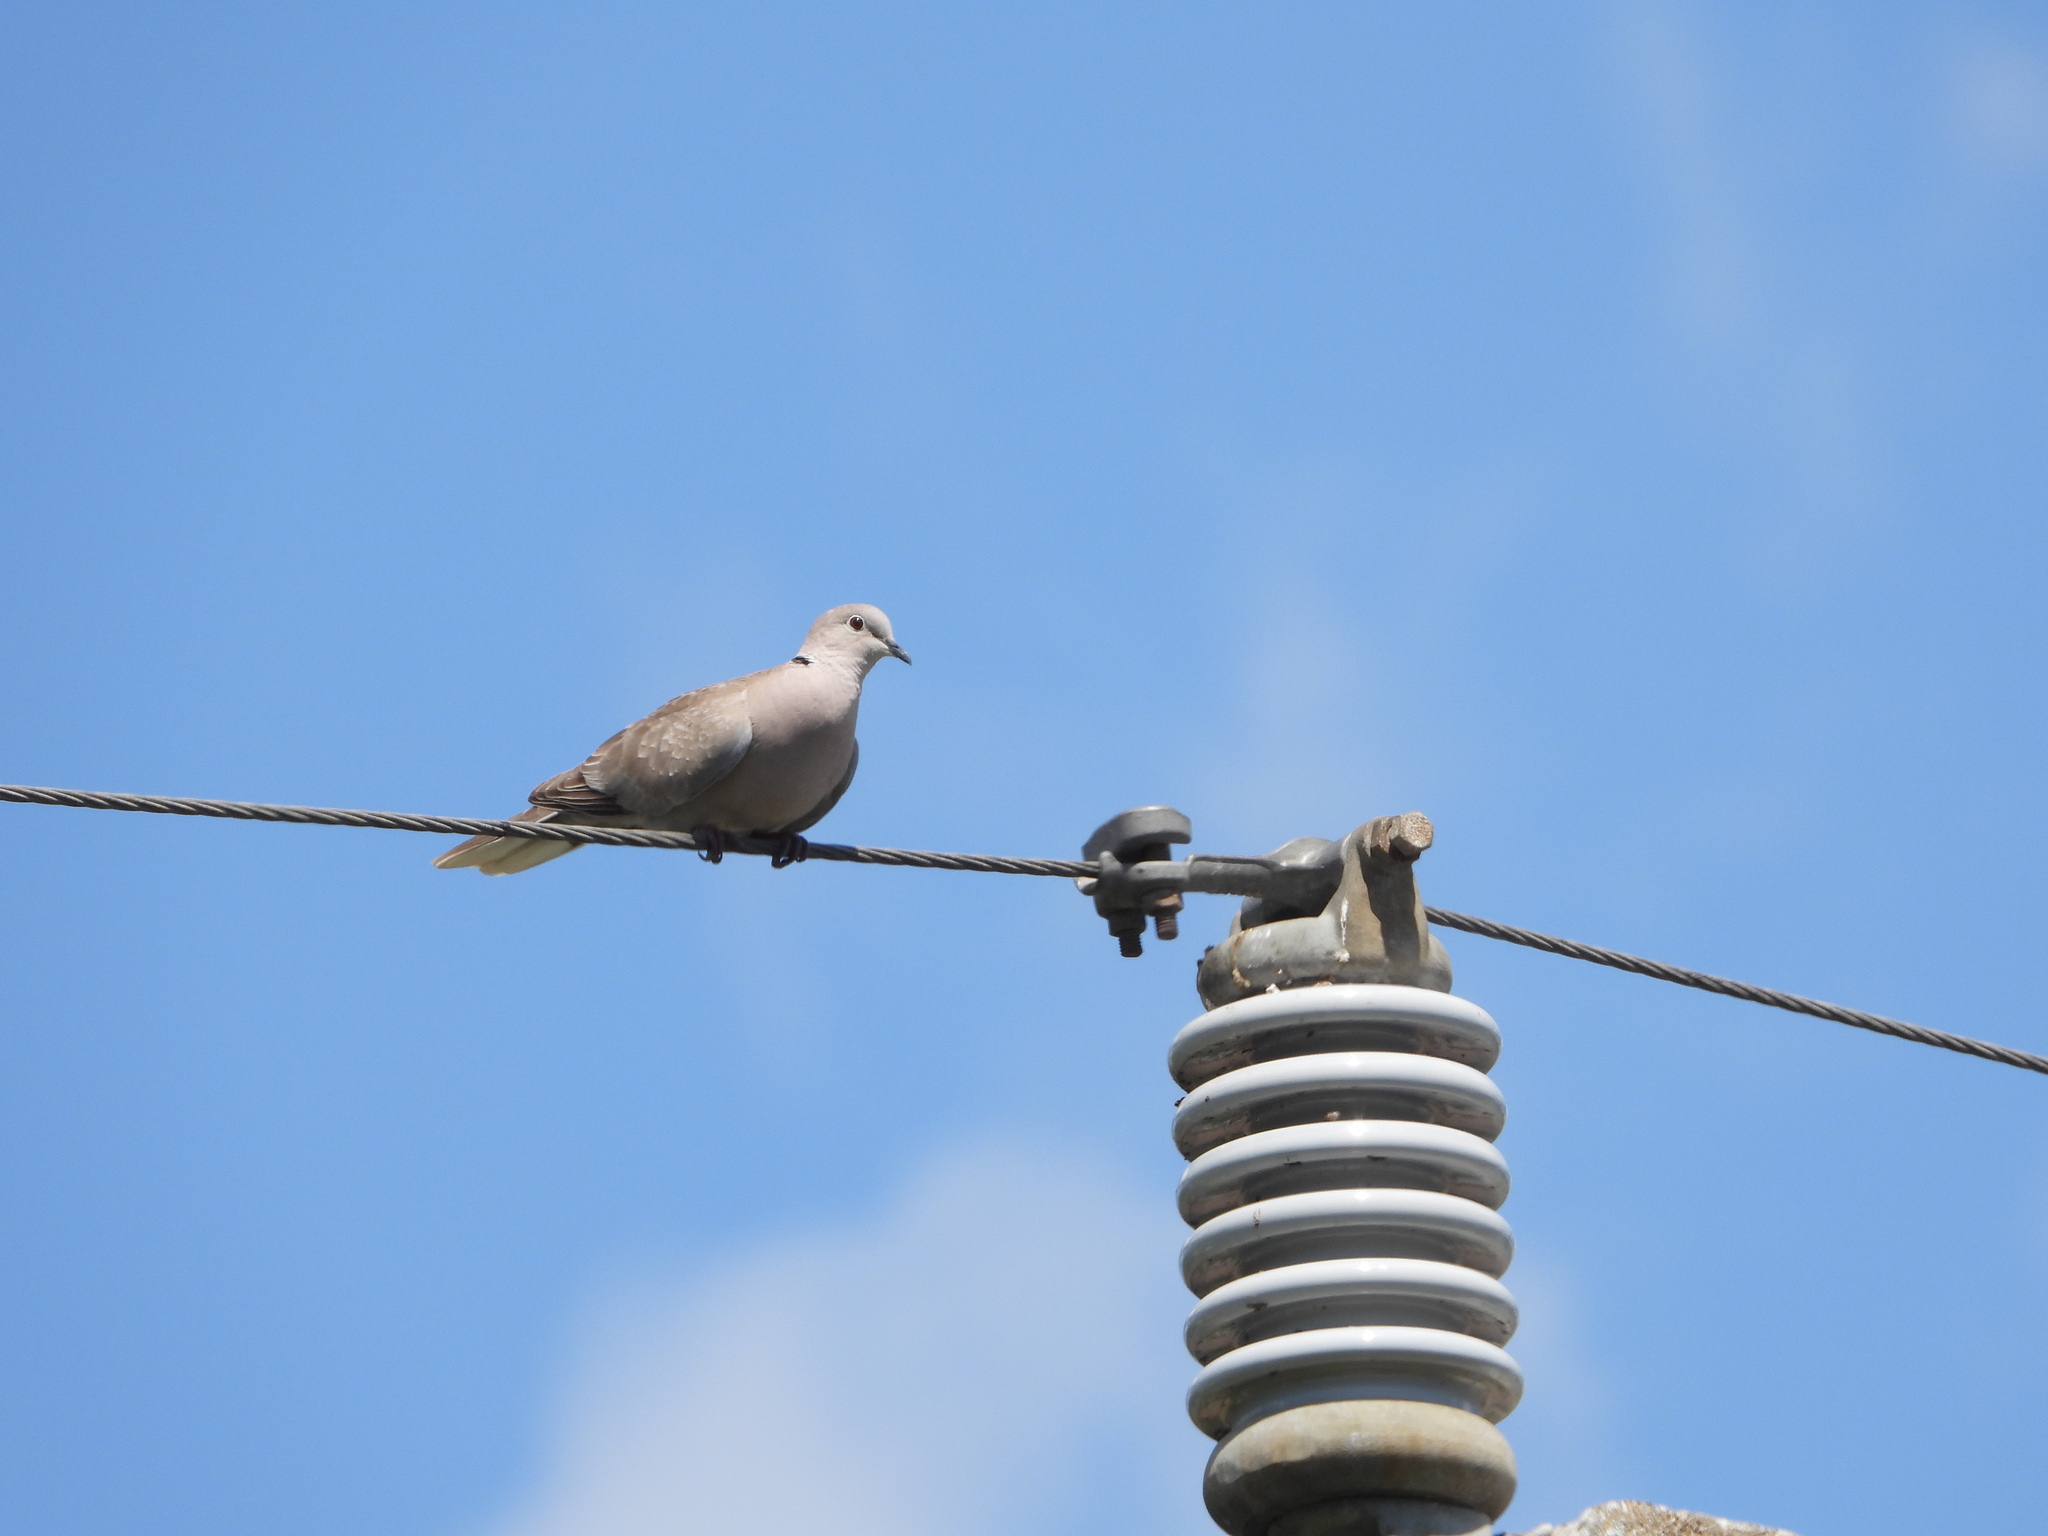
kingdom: Animalia
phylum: Chordata
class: Aves
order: Columbiformes
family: Columbidae
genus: Streptopelia
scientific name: Streptopelia decaocto
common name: Eurasian collared dove
